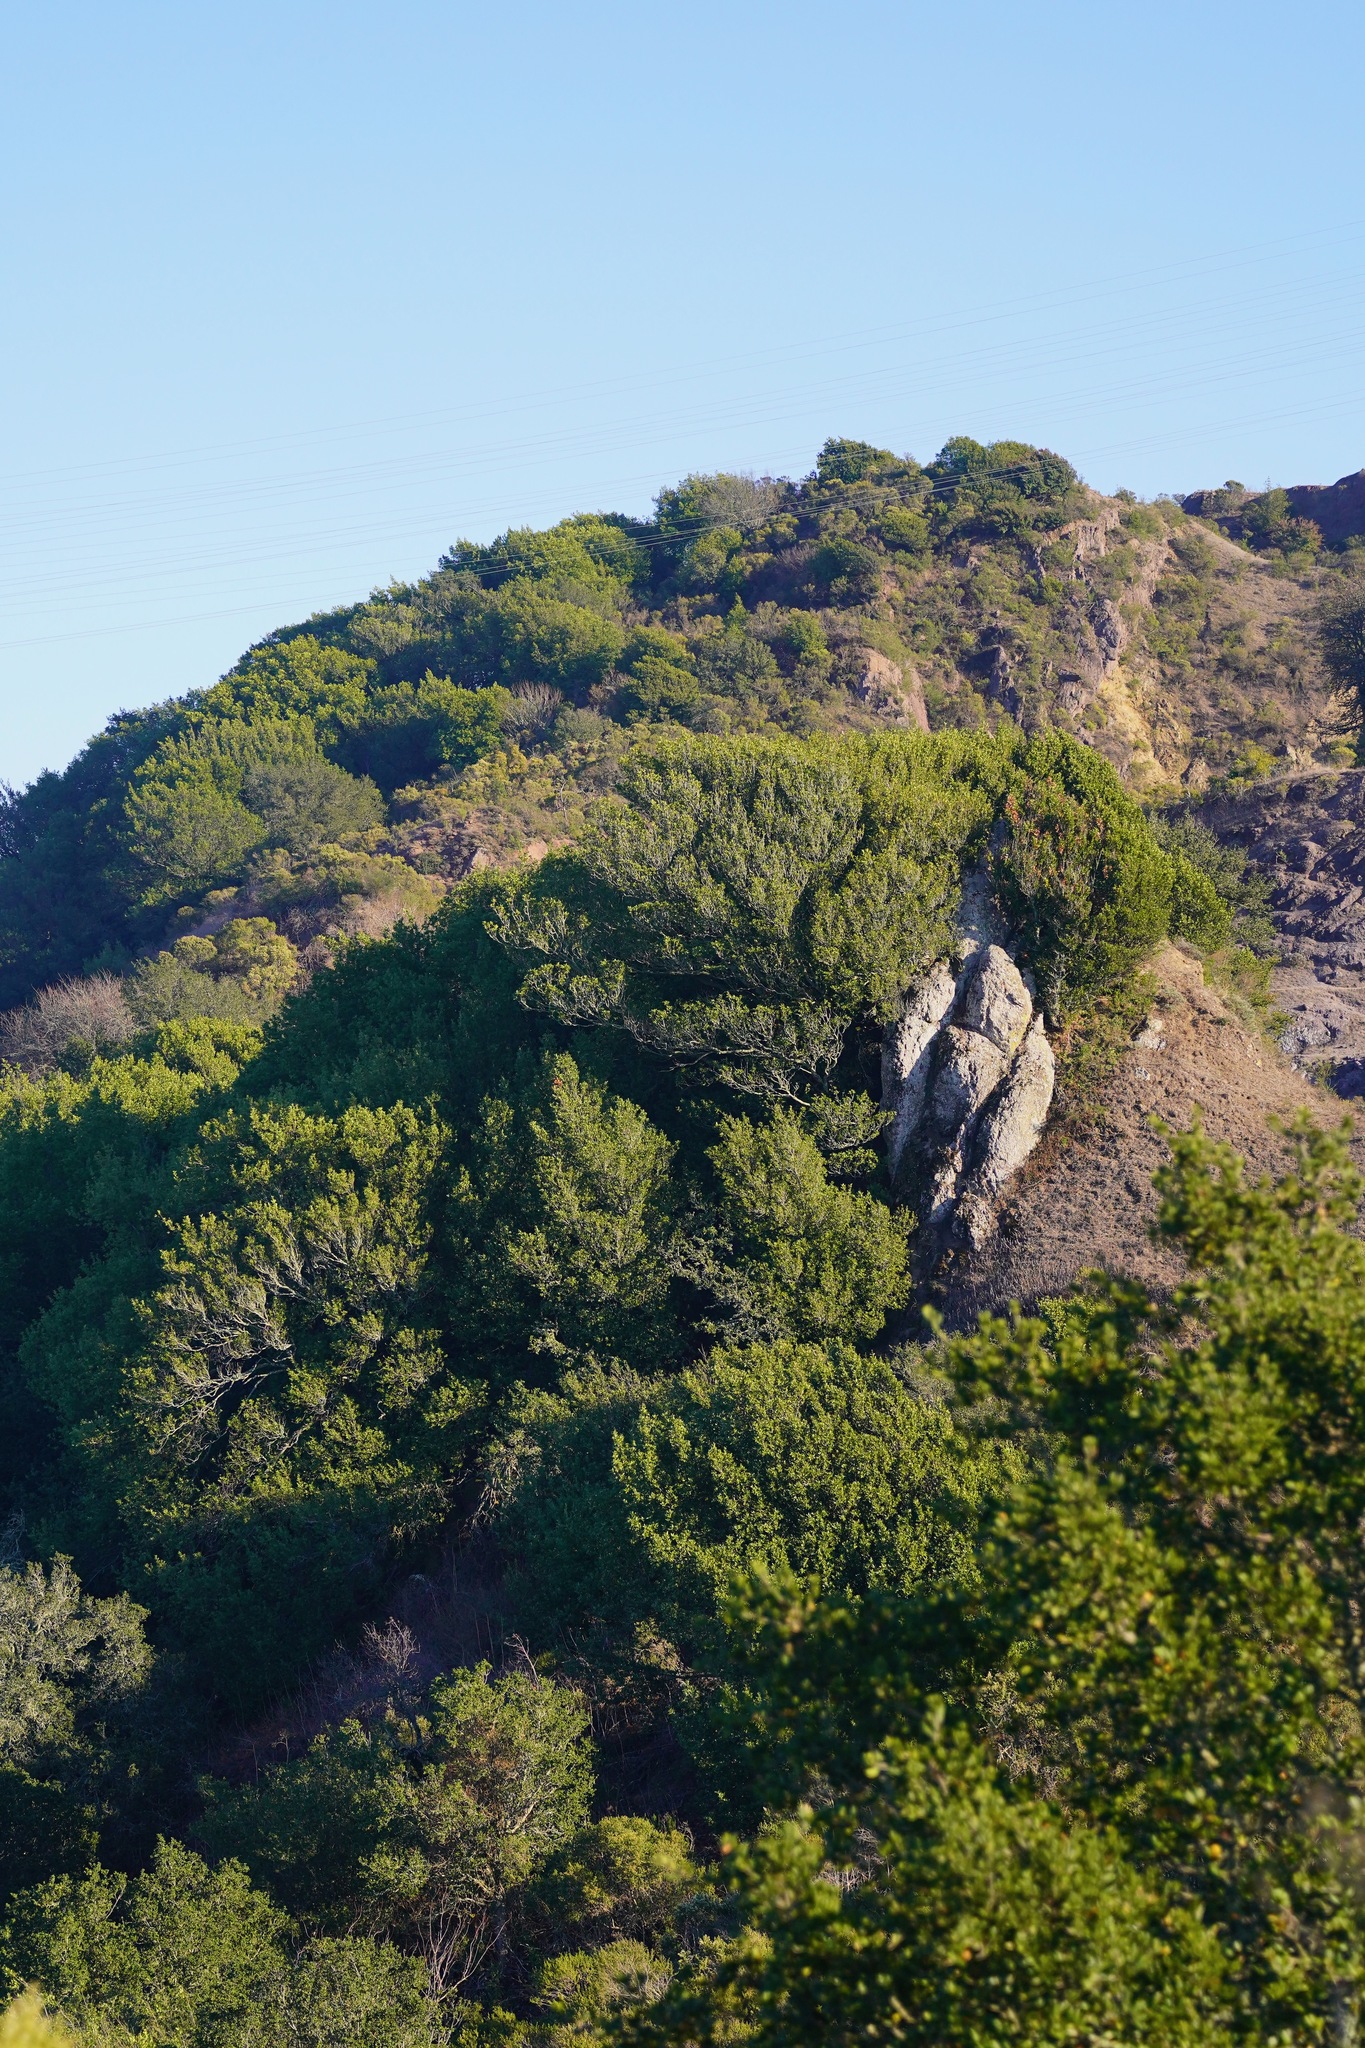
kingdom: Plantae
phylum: Tracheophyta
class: Magnoliopsida
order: Laurales
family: Lauraceae
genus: Umbellularia
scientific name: Umbellularia californica
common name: California bay
